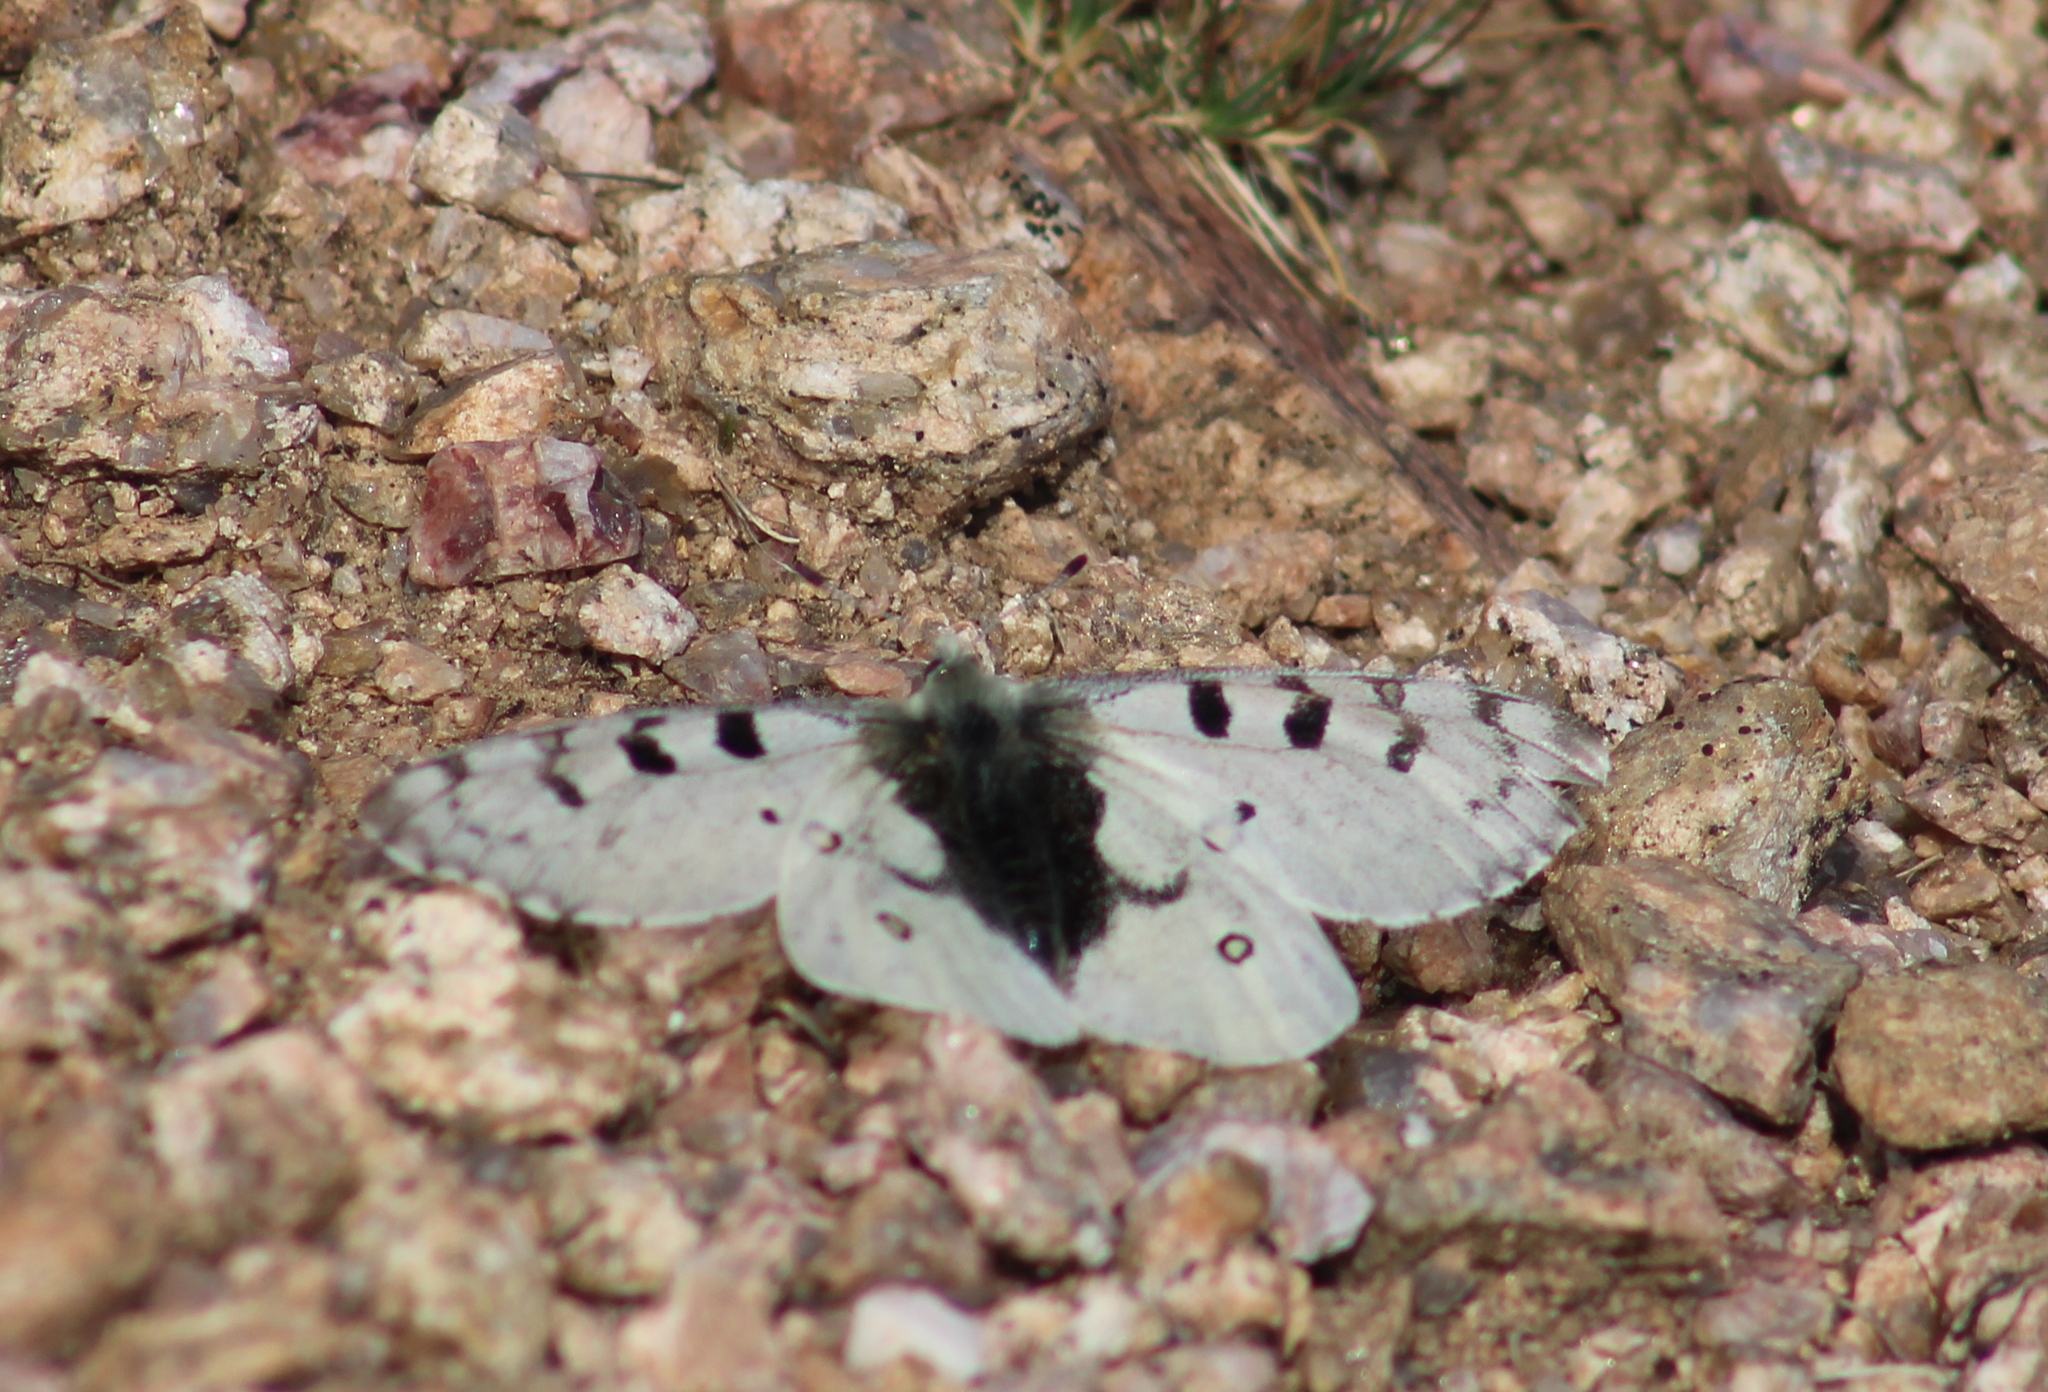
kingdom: Animalia
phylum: Arthropoda
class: Insecta
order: Lepidoptera
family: Papilionidae
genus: Parnassius
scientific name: Parnassius smintheus
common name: Mountain parnassian
